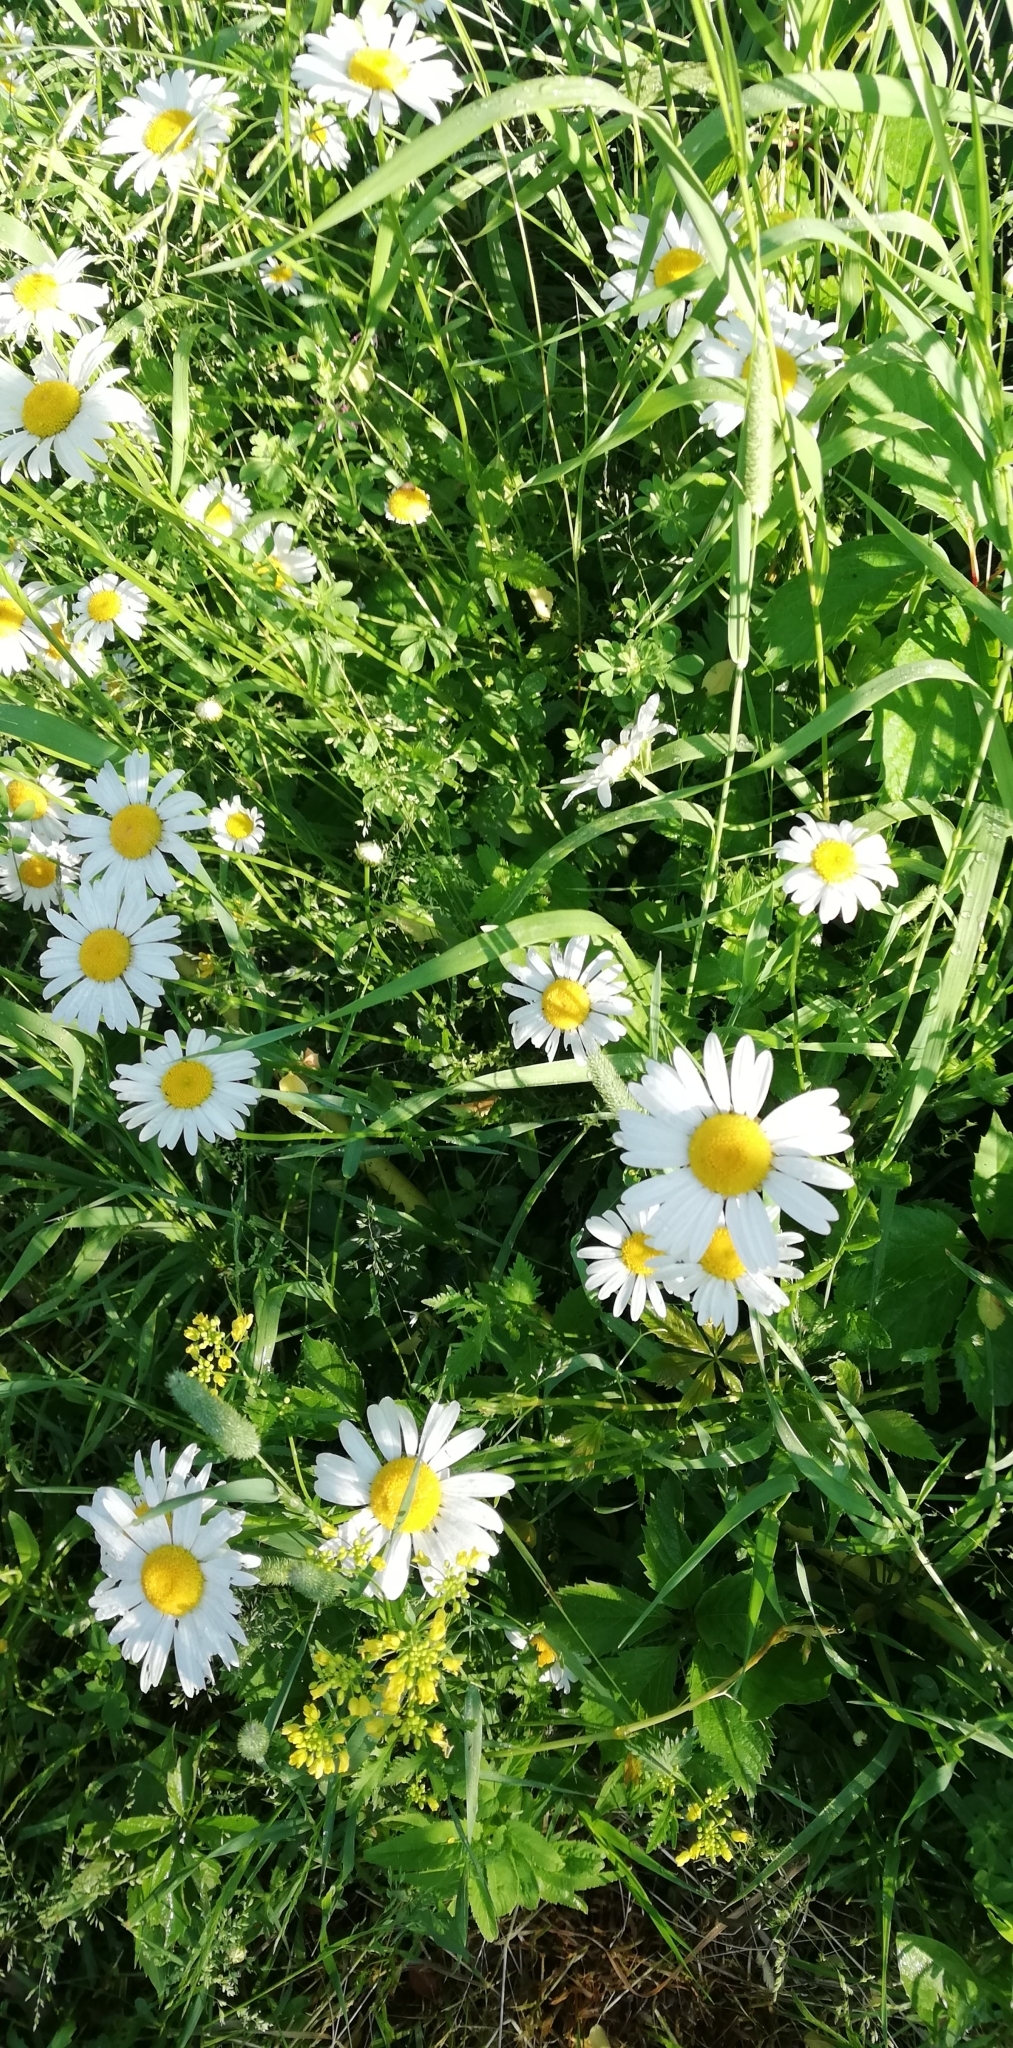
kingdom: Plantae
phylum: Tracheophyta
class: Magnoliopsida
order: Asterales
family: Asteraceae
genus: Leucanthemum
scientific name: Leucanthemum vulgare
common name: Oxeye daisy
